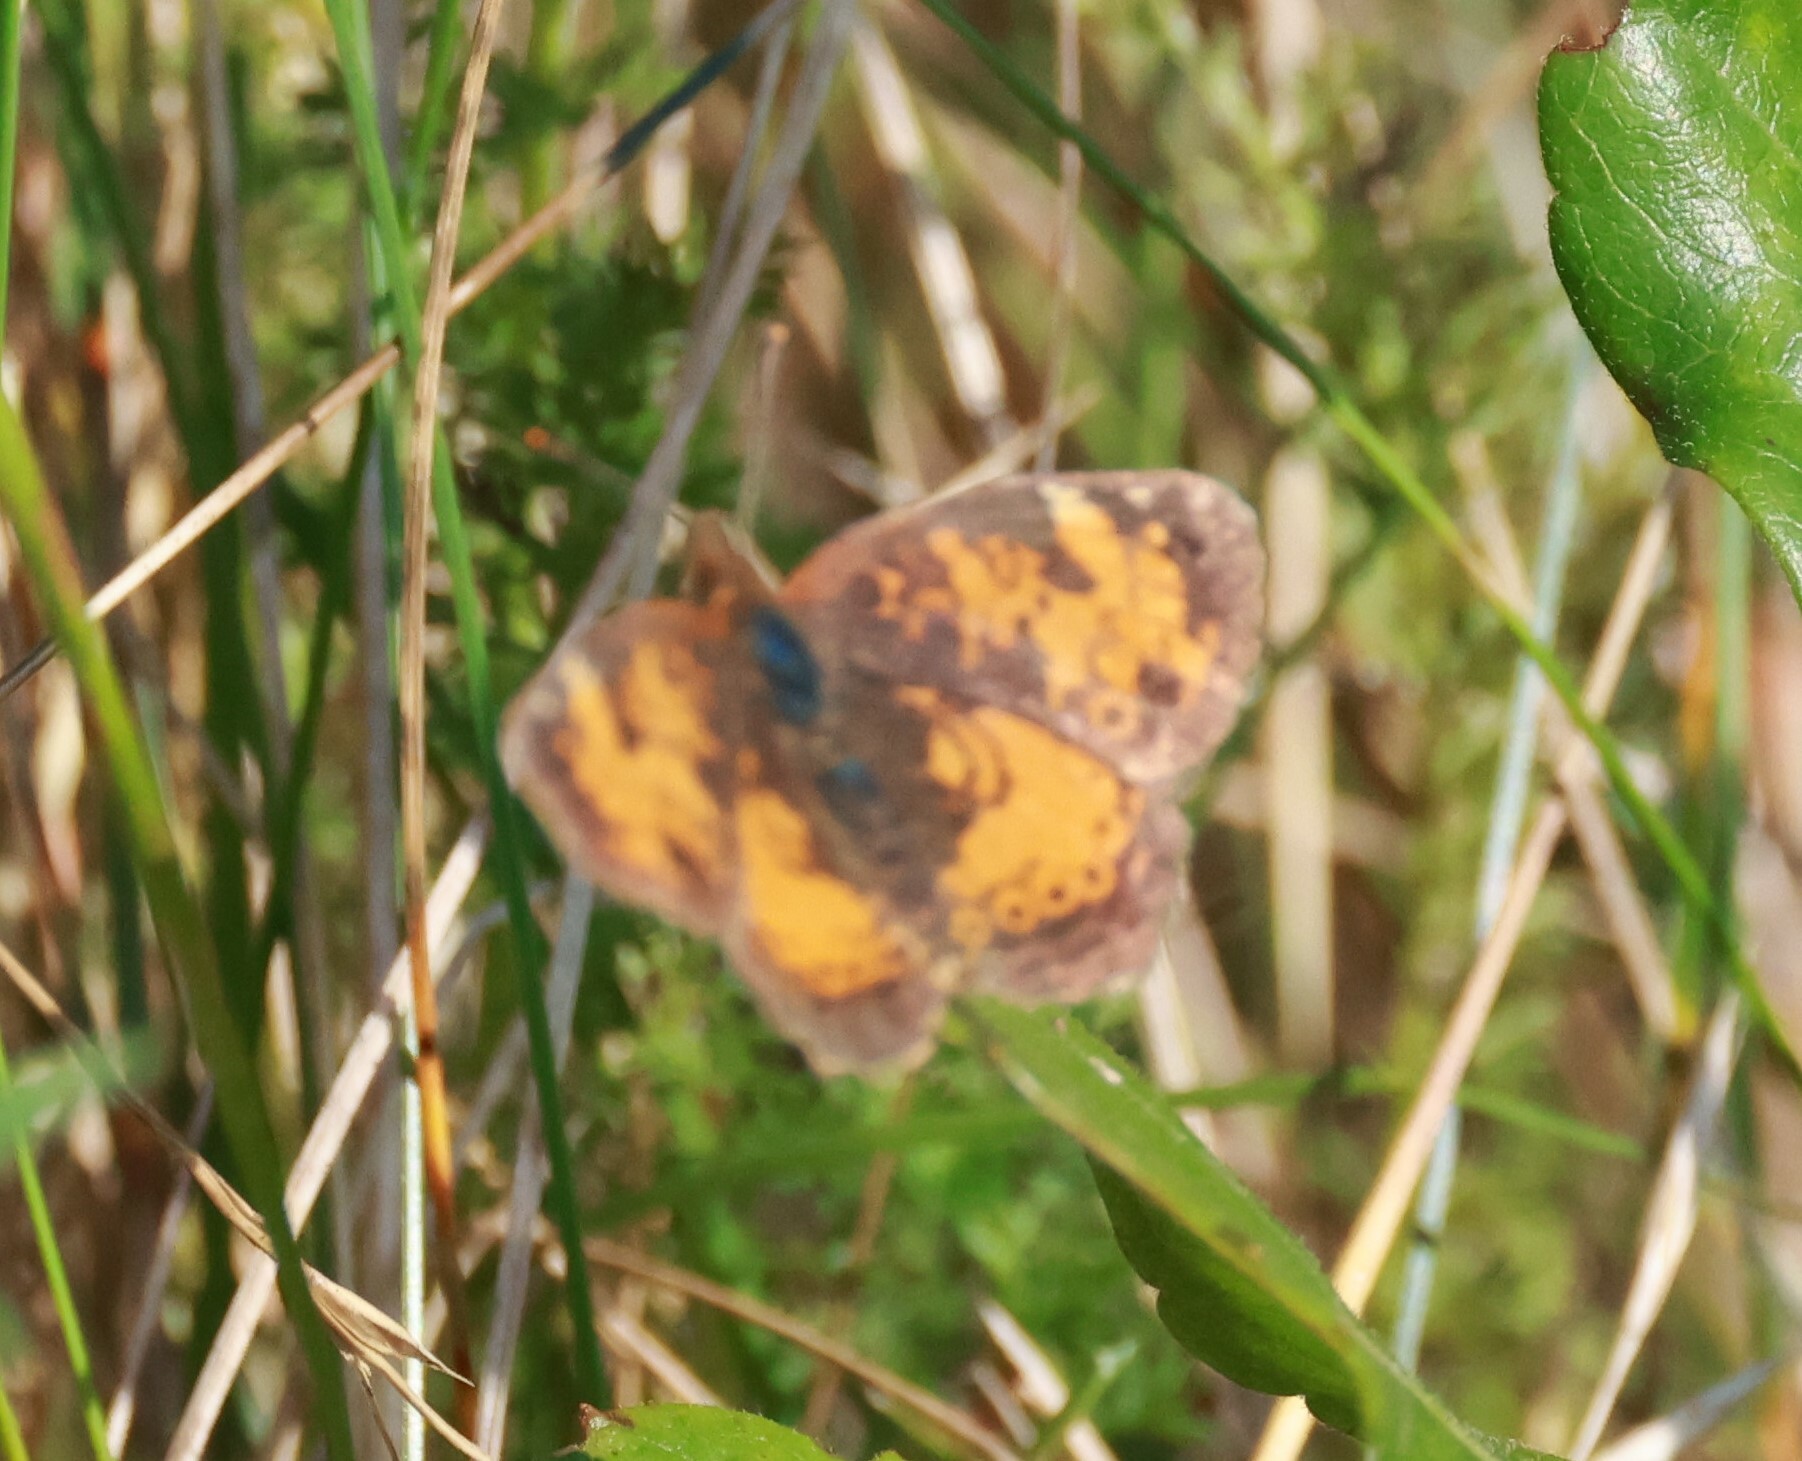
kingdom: Animalia
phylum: Arthropoda
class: Insecta
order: Lepidoptera
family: Nymphalidae
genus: Phyciodes
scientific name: Phyciodes tharos
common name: Pearl crescent
